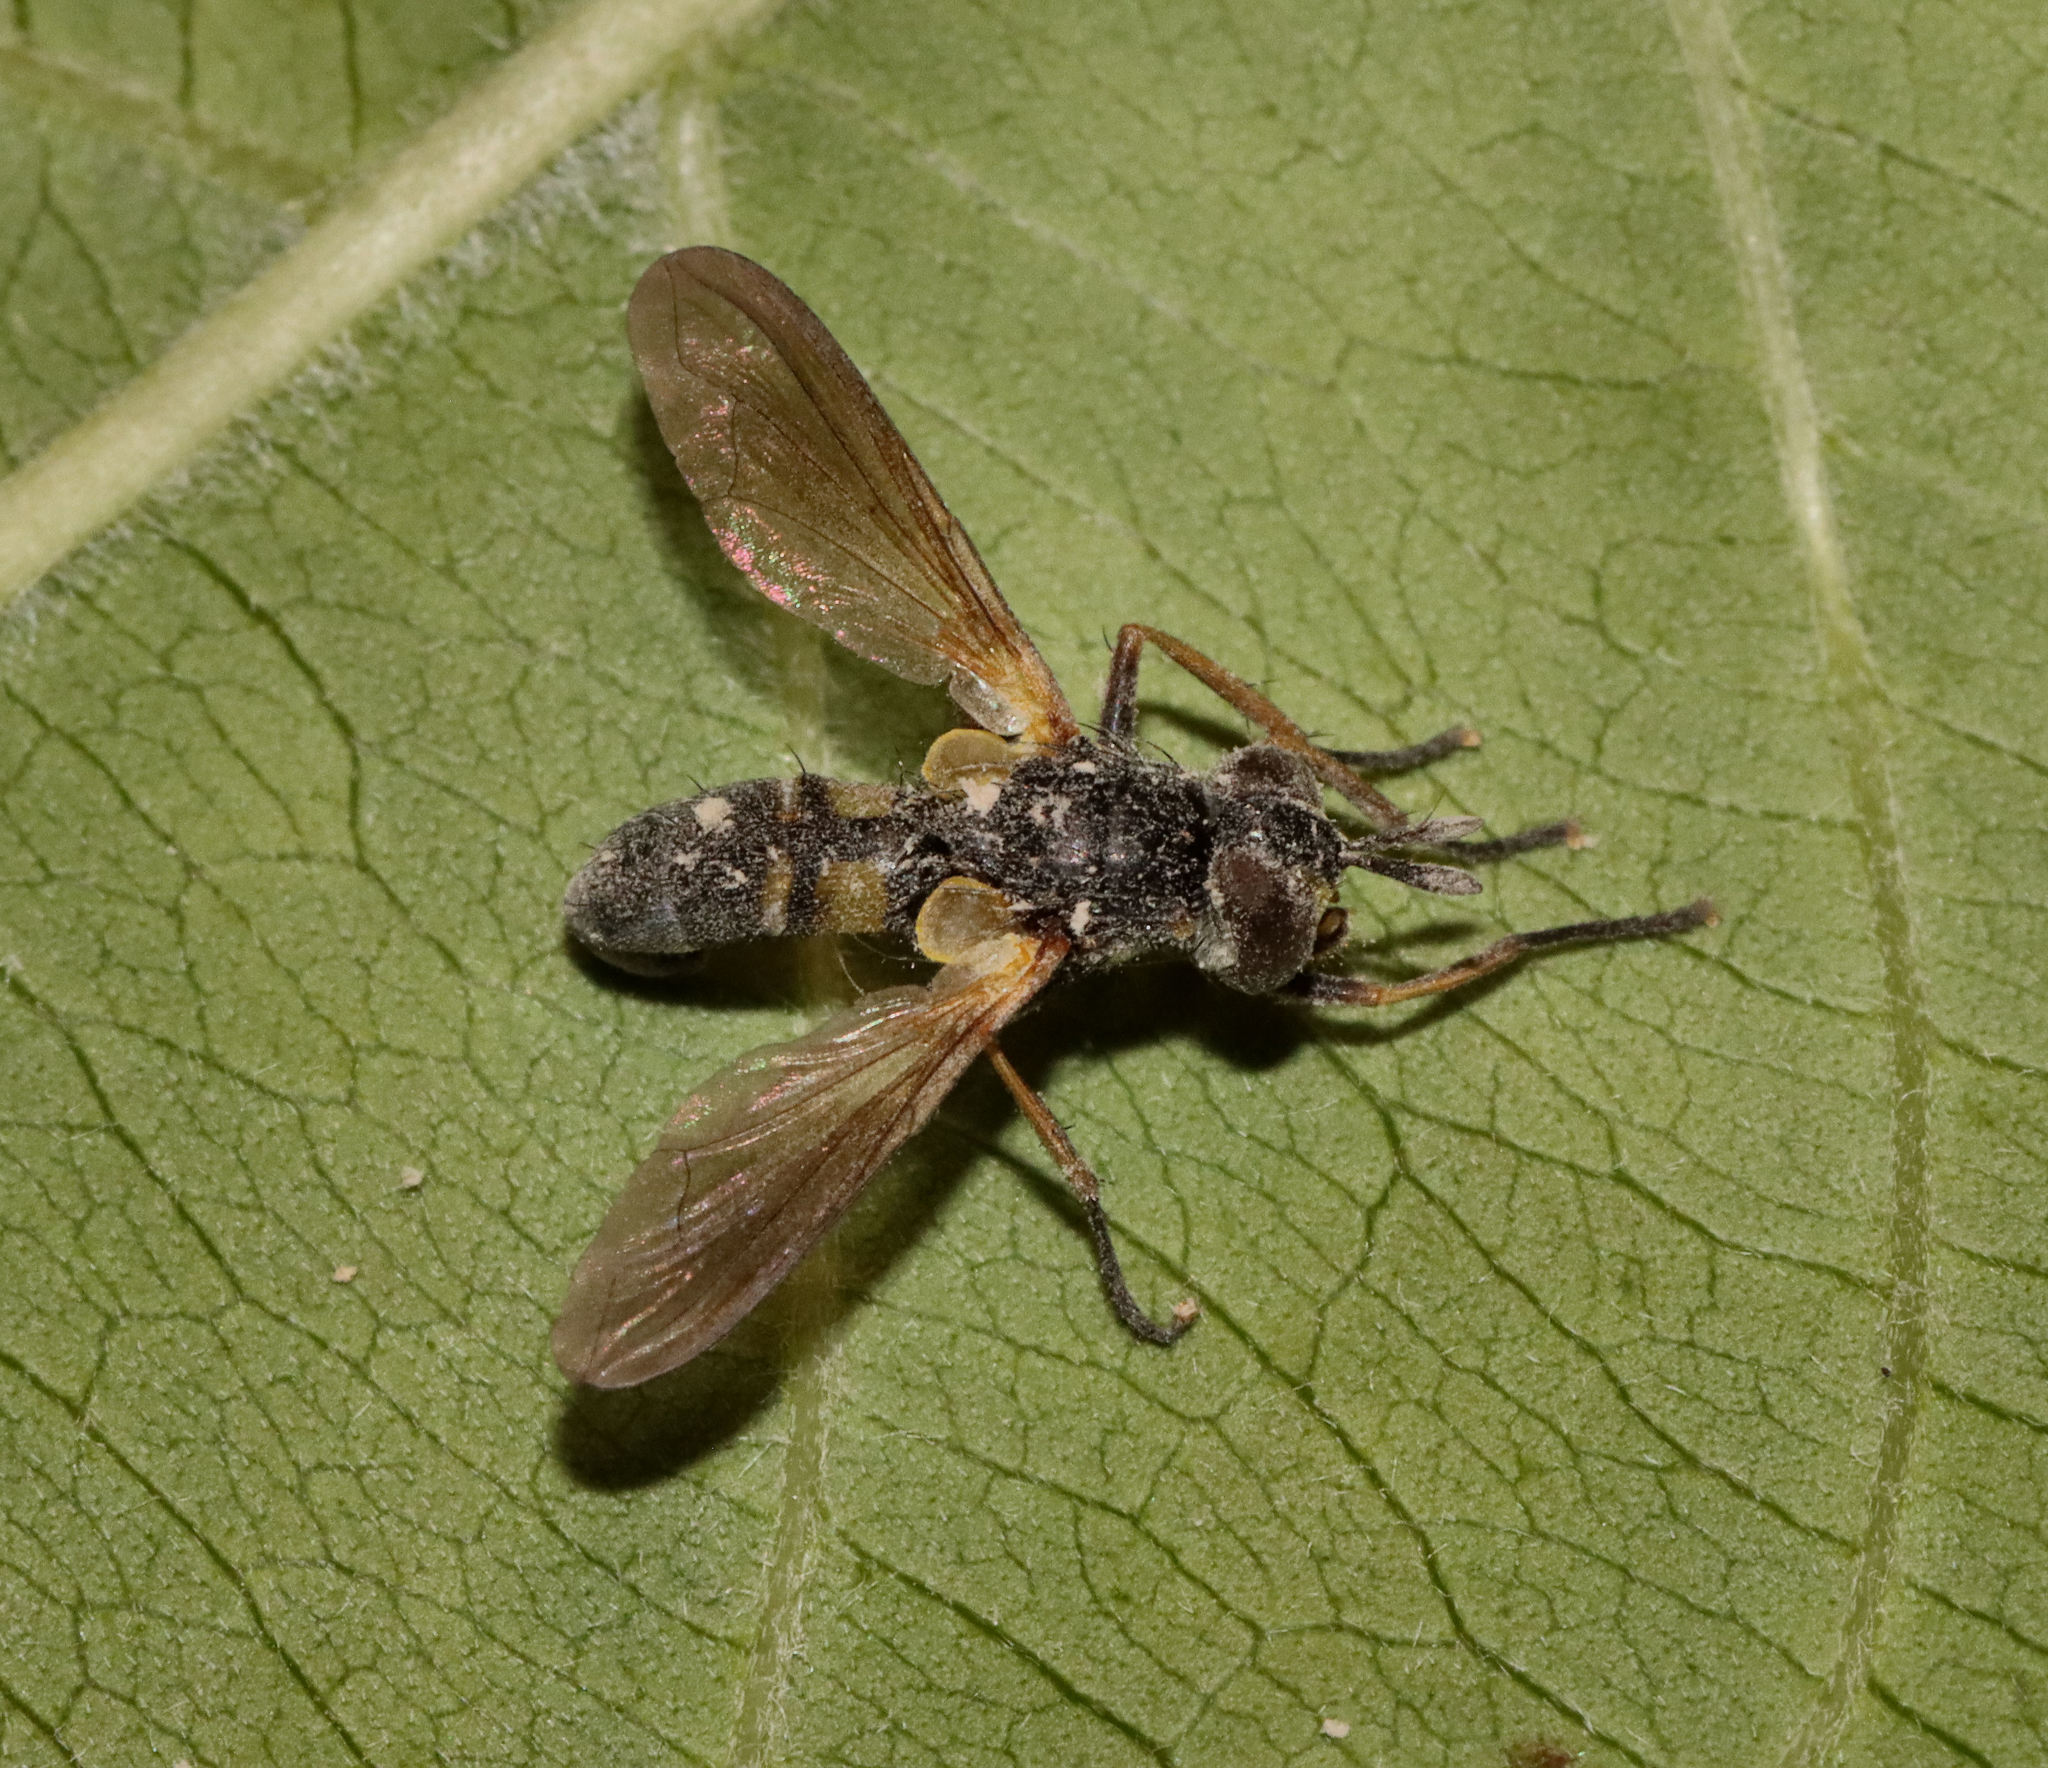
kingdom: Animalia
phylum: Arthropoda
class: Insecta
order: Diptera
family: Tachinidae
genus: Hemyda
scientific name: Hemyda aurata
